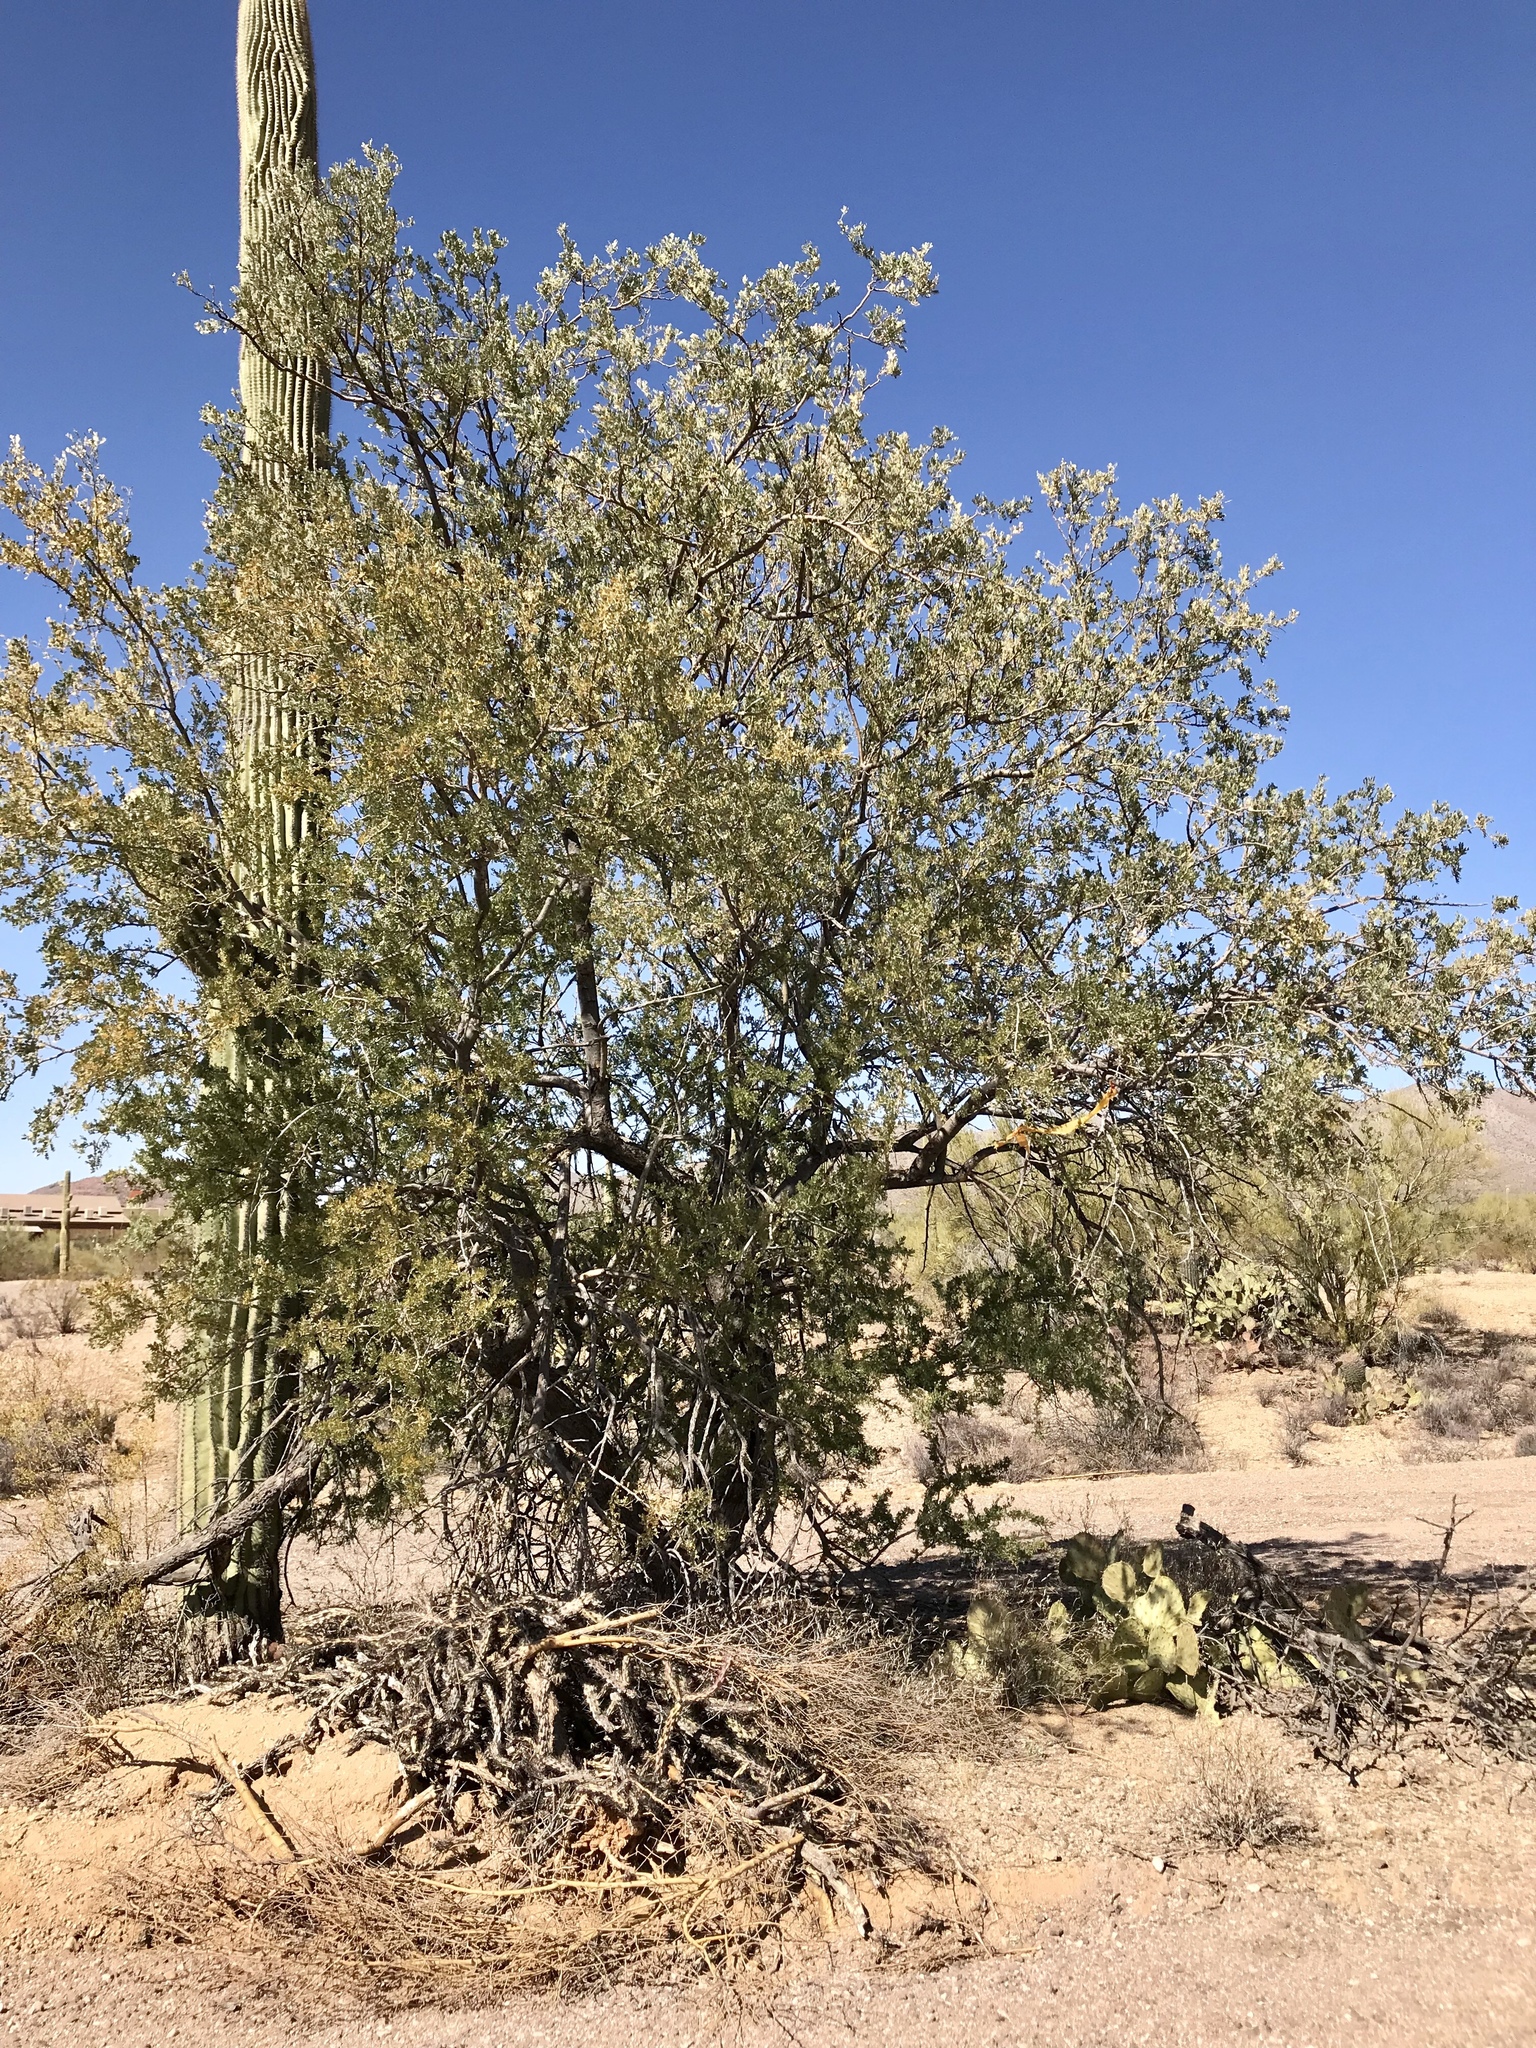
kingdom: Plantae
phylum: Tracheophyta
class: Magnoliopsida
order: Fabales
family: Fabaceae
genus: Olneya
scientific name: Olneya tesota
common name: Desert ironwood
